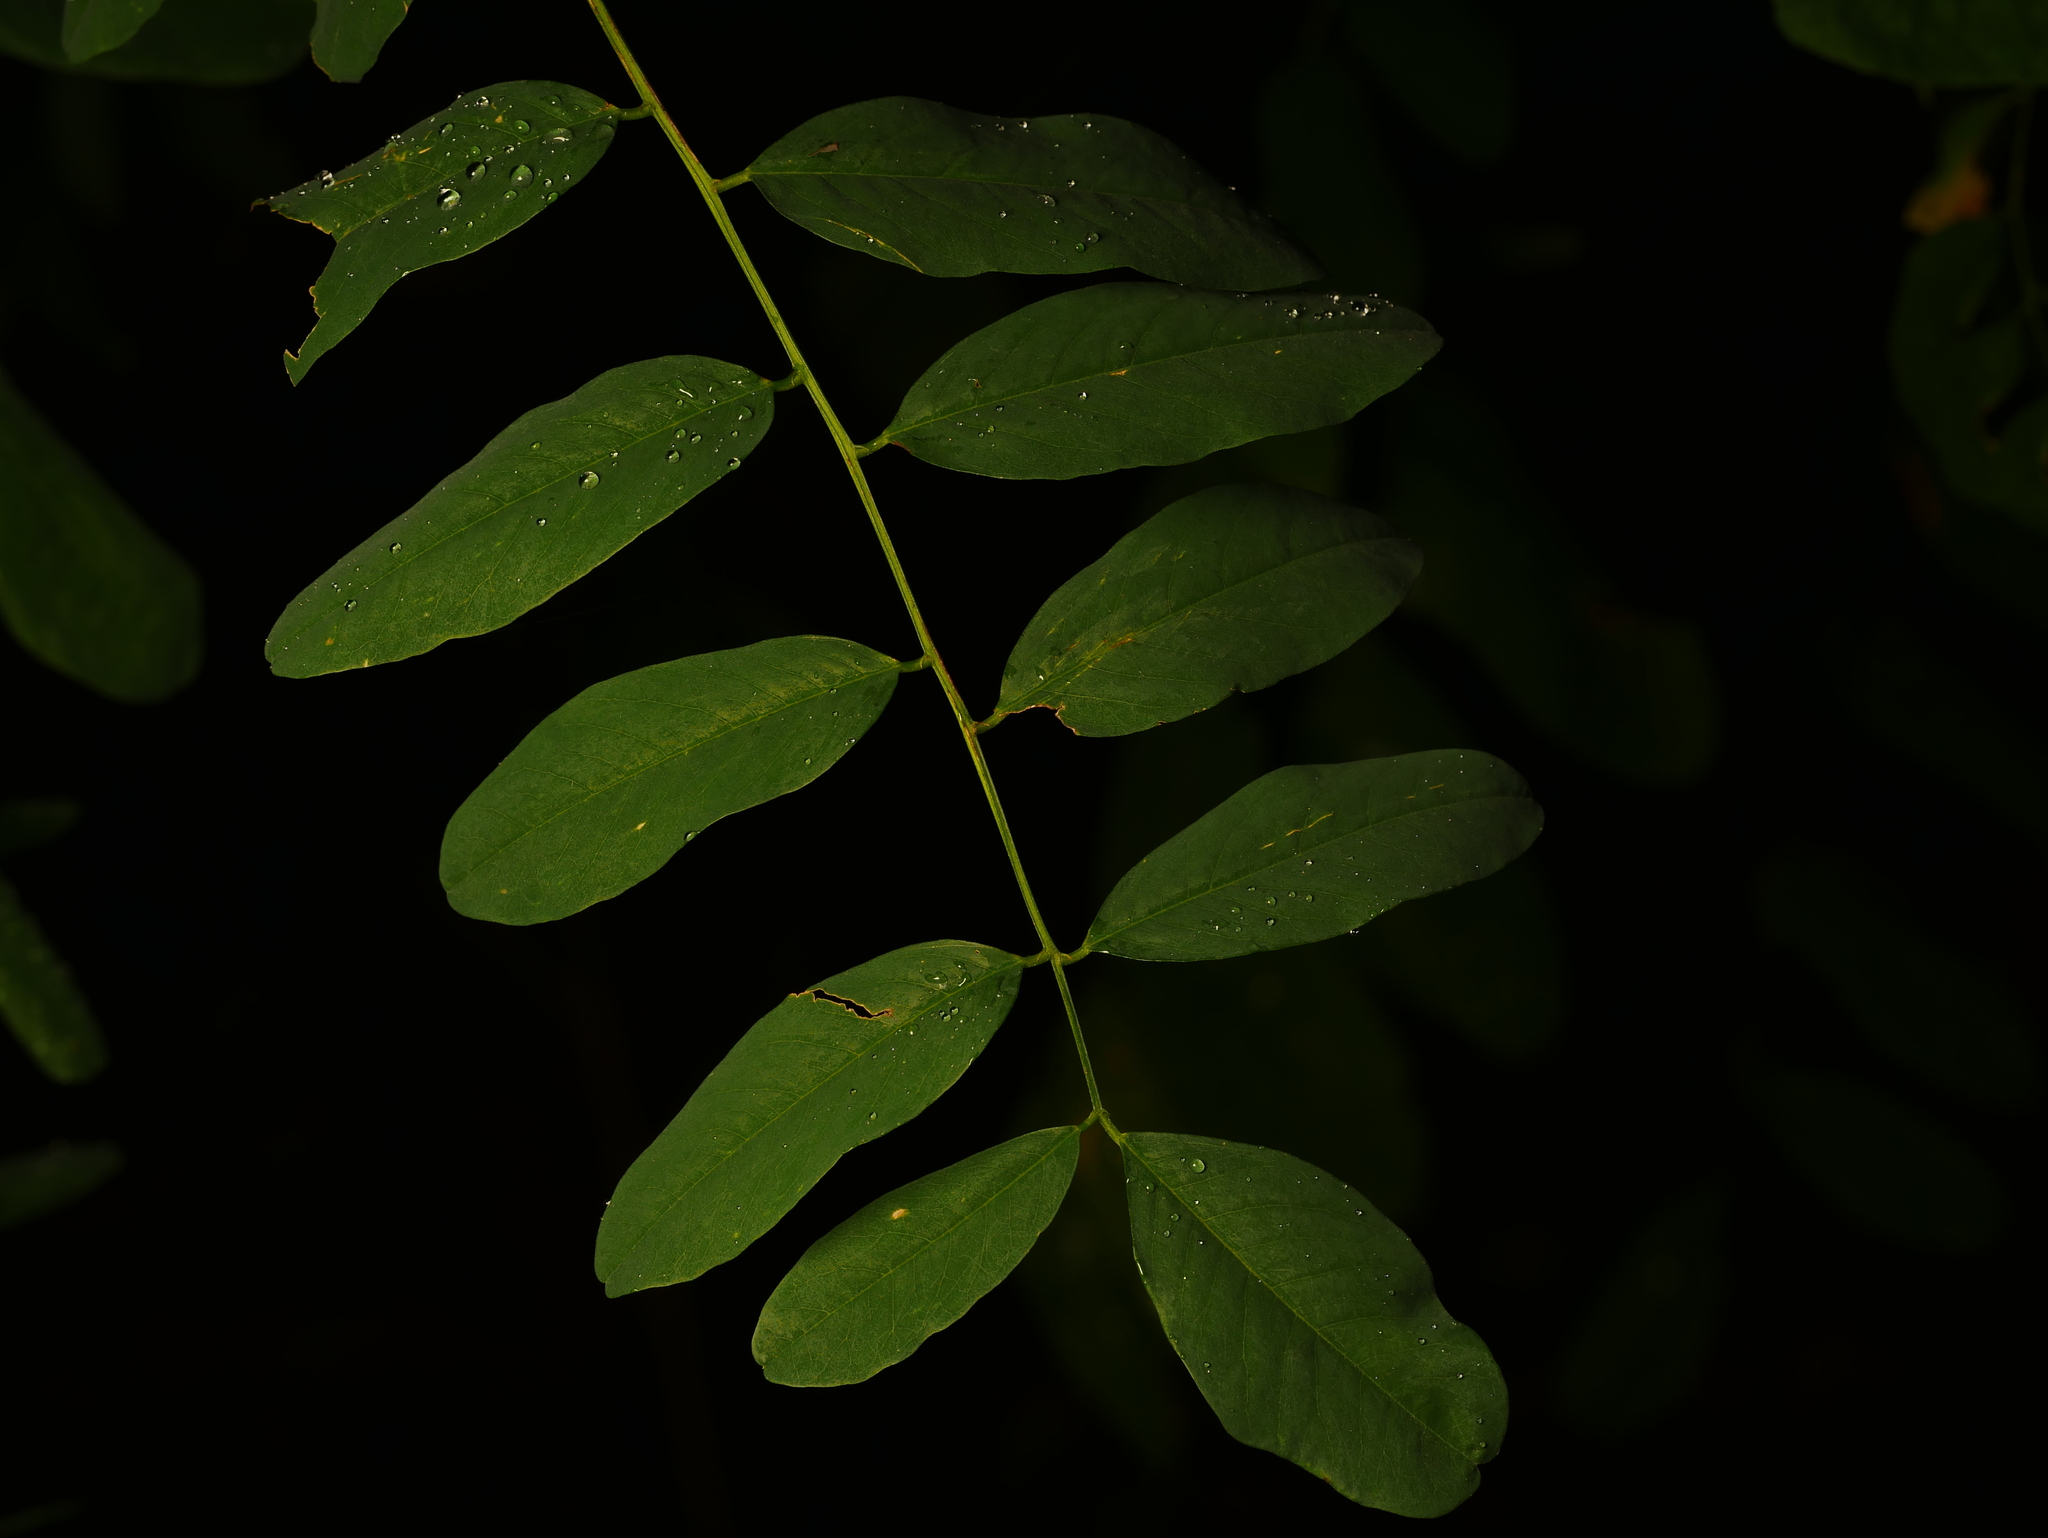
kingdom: Plantae
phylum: Tracheophyta
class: Magnoliopsida
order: Fabales
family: Fabaceae
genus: Robinia
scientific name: Robinia pseudoacacia
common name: Black locust
